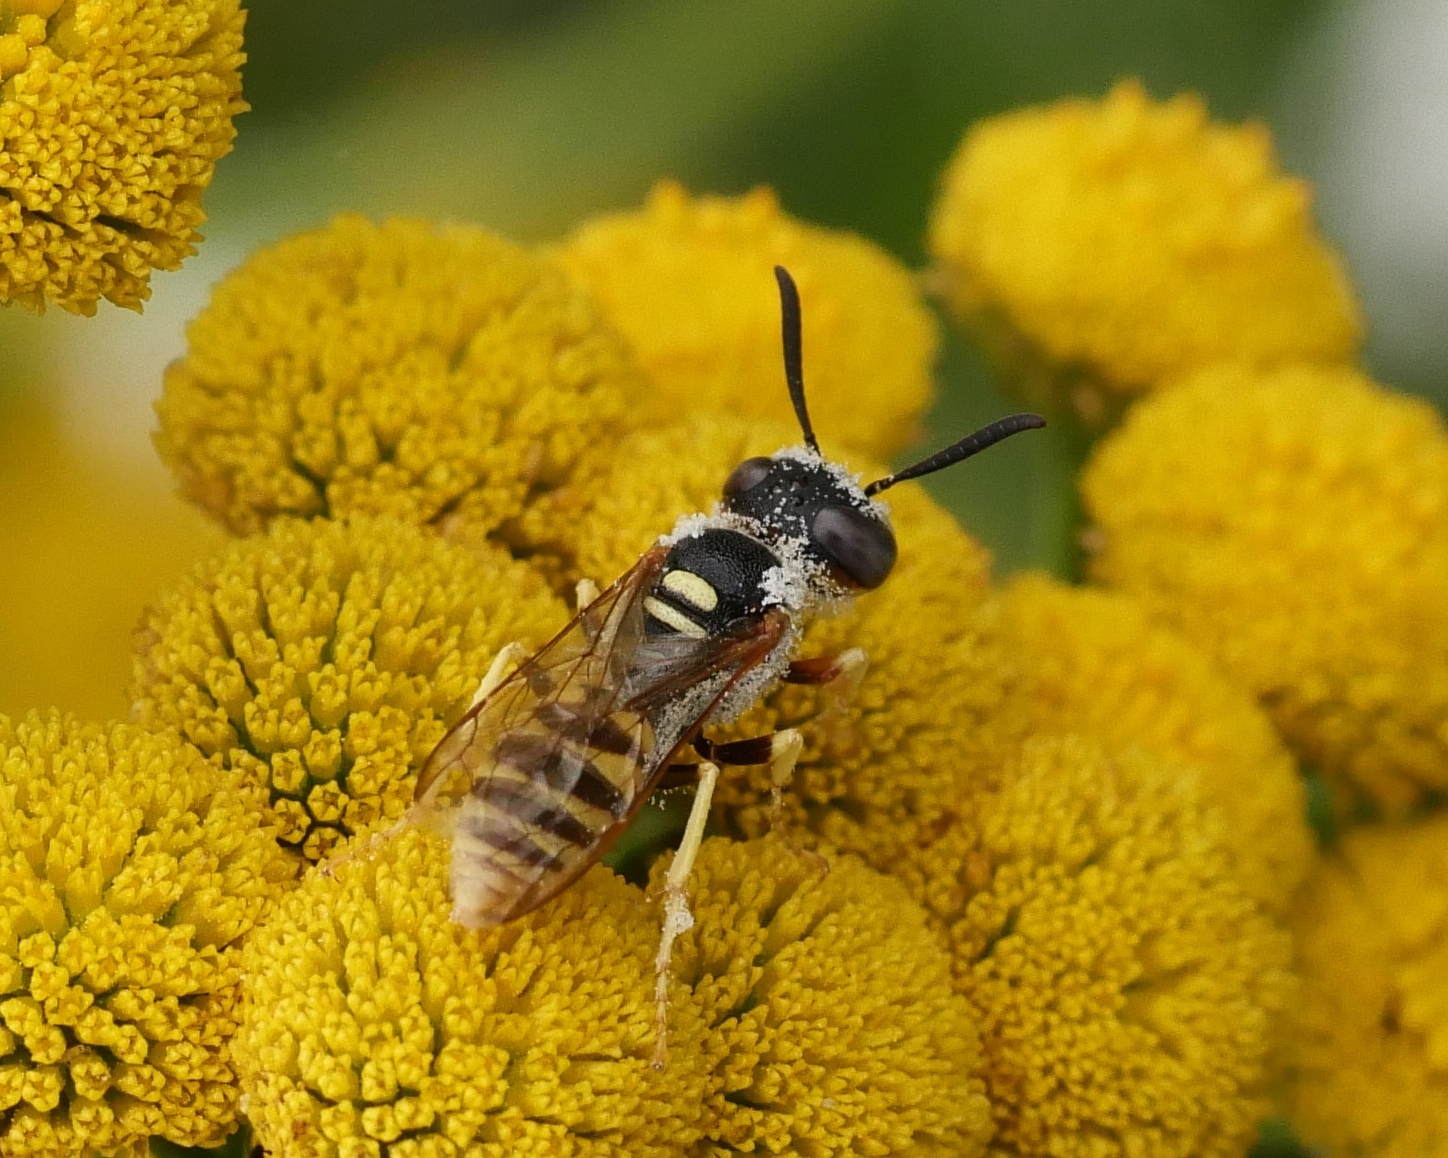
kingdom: Animalia
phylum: Arthropoda
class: Insecta
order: Hymenoptera
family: Crabronidae
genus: Philanthus
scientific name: Philanthus triangulum
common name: Bee wolf
